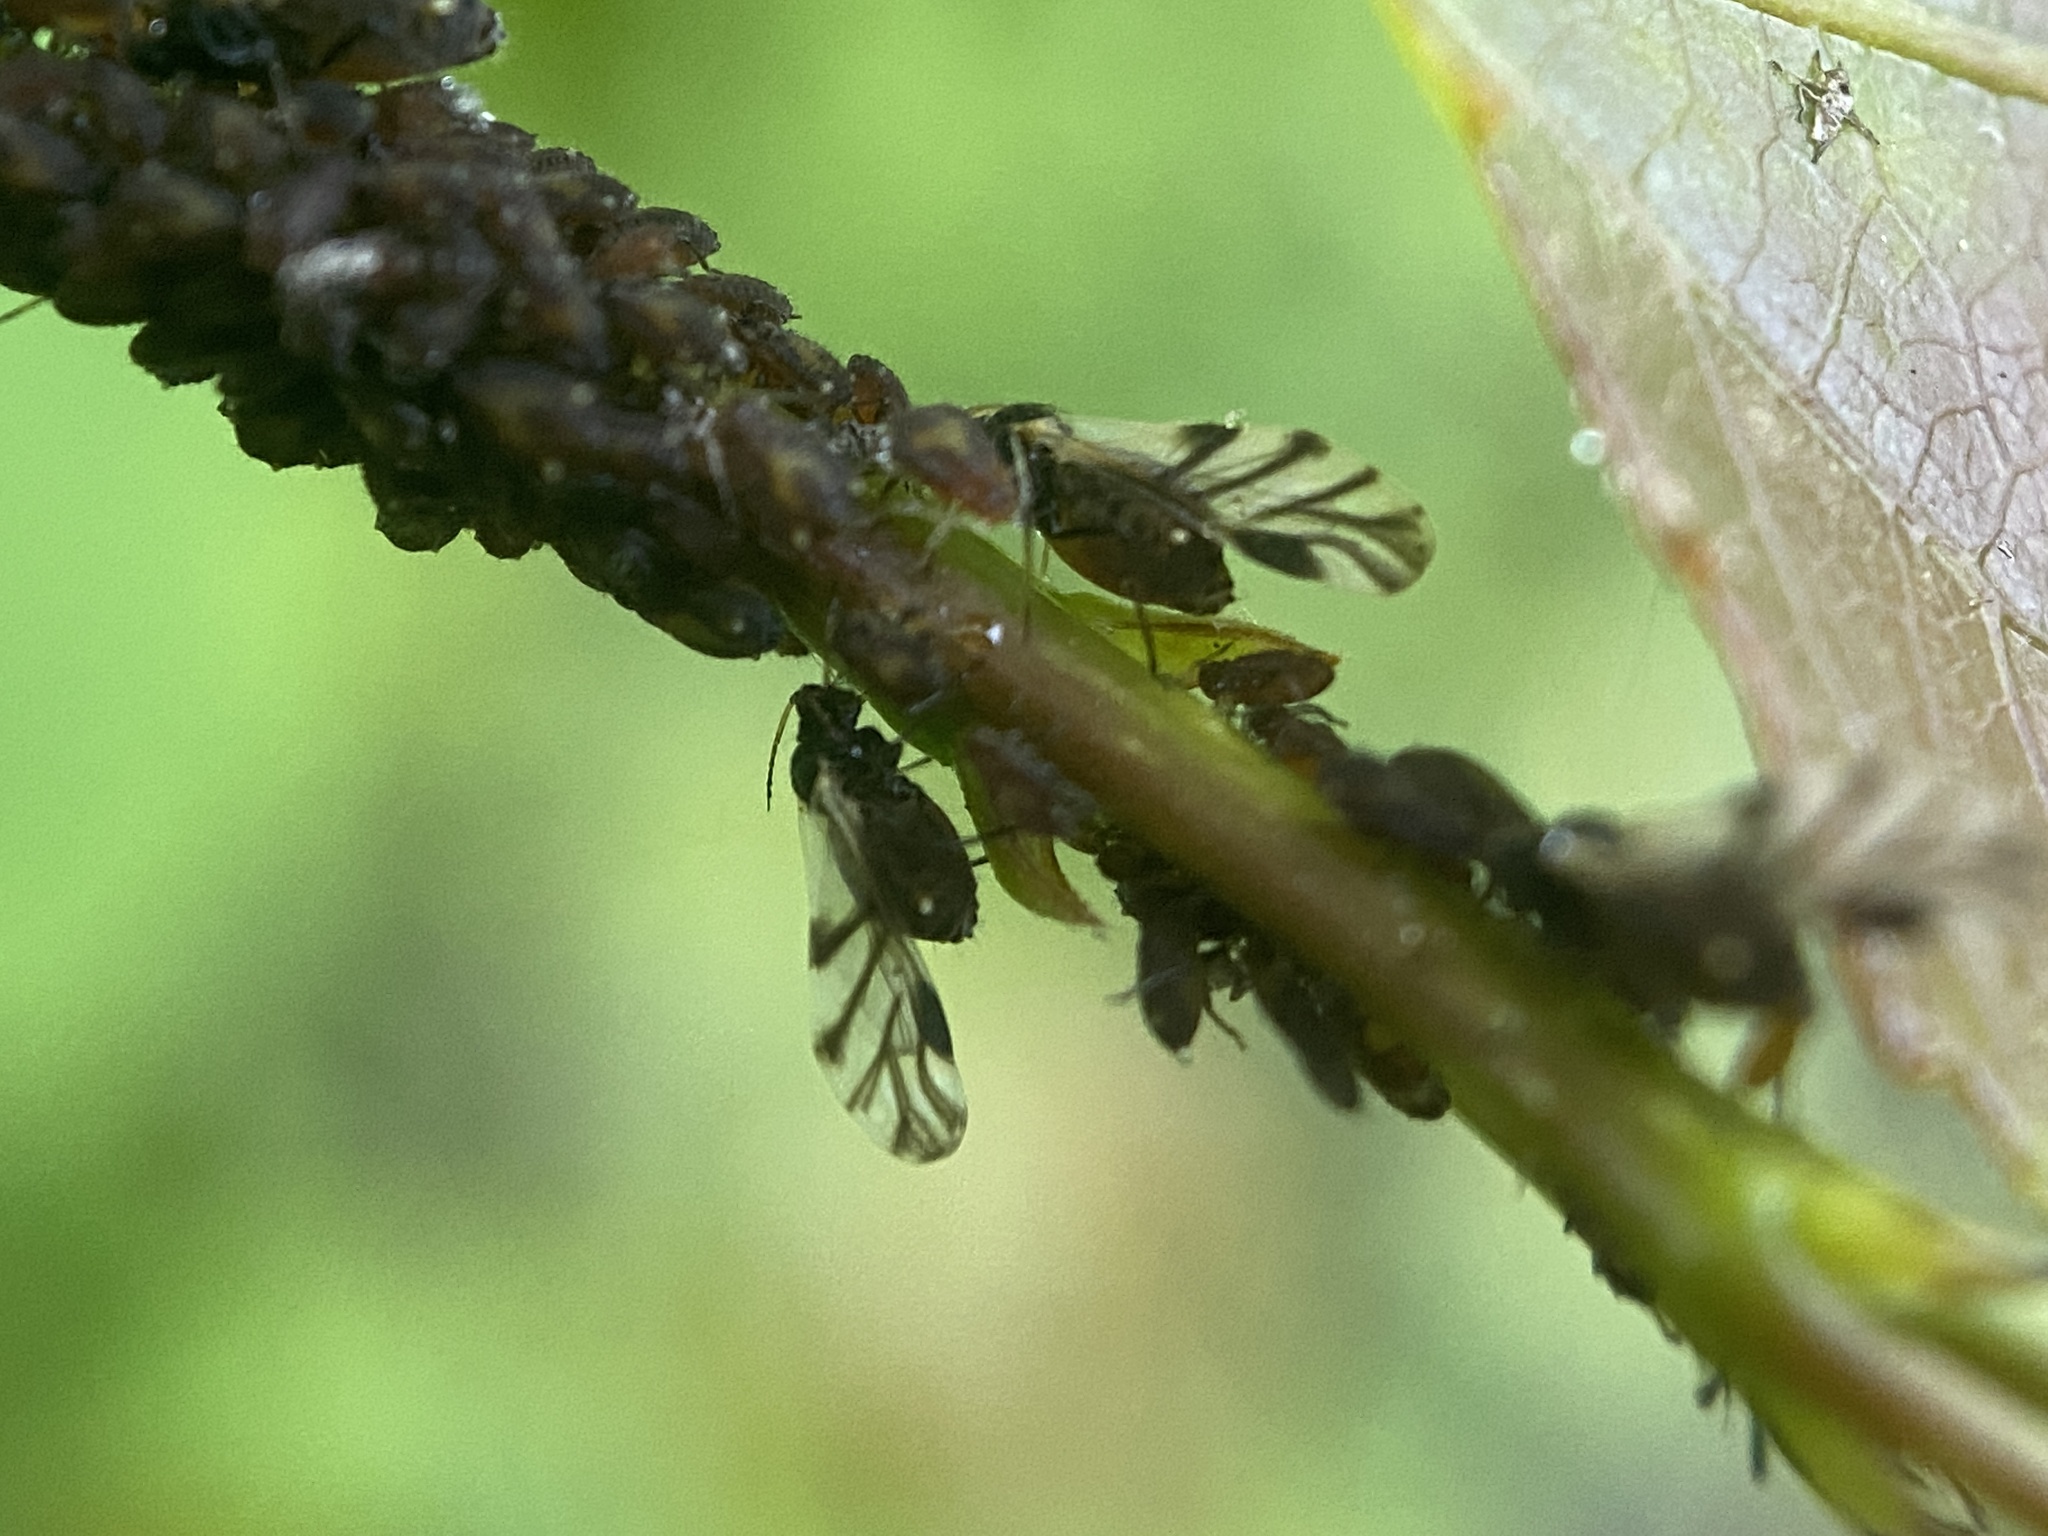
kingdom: Animalia
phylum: Arthropoda
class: Insecta
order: Hemiptera
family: Aphididae
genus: Chaitophorus
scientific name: Chaitophorus populicola
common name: Smokywinged poplar aphid
